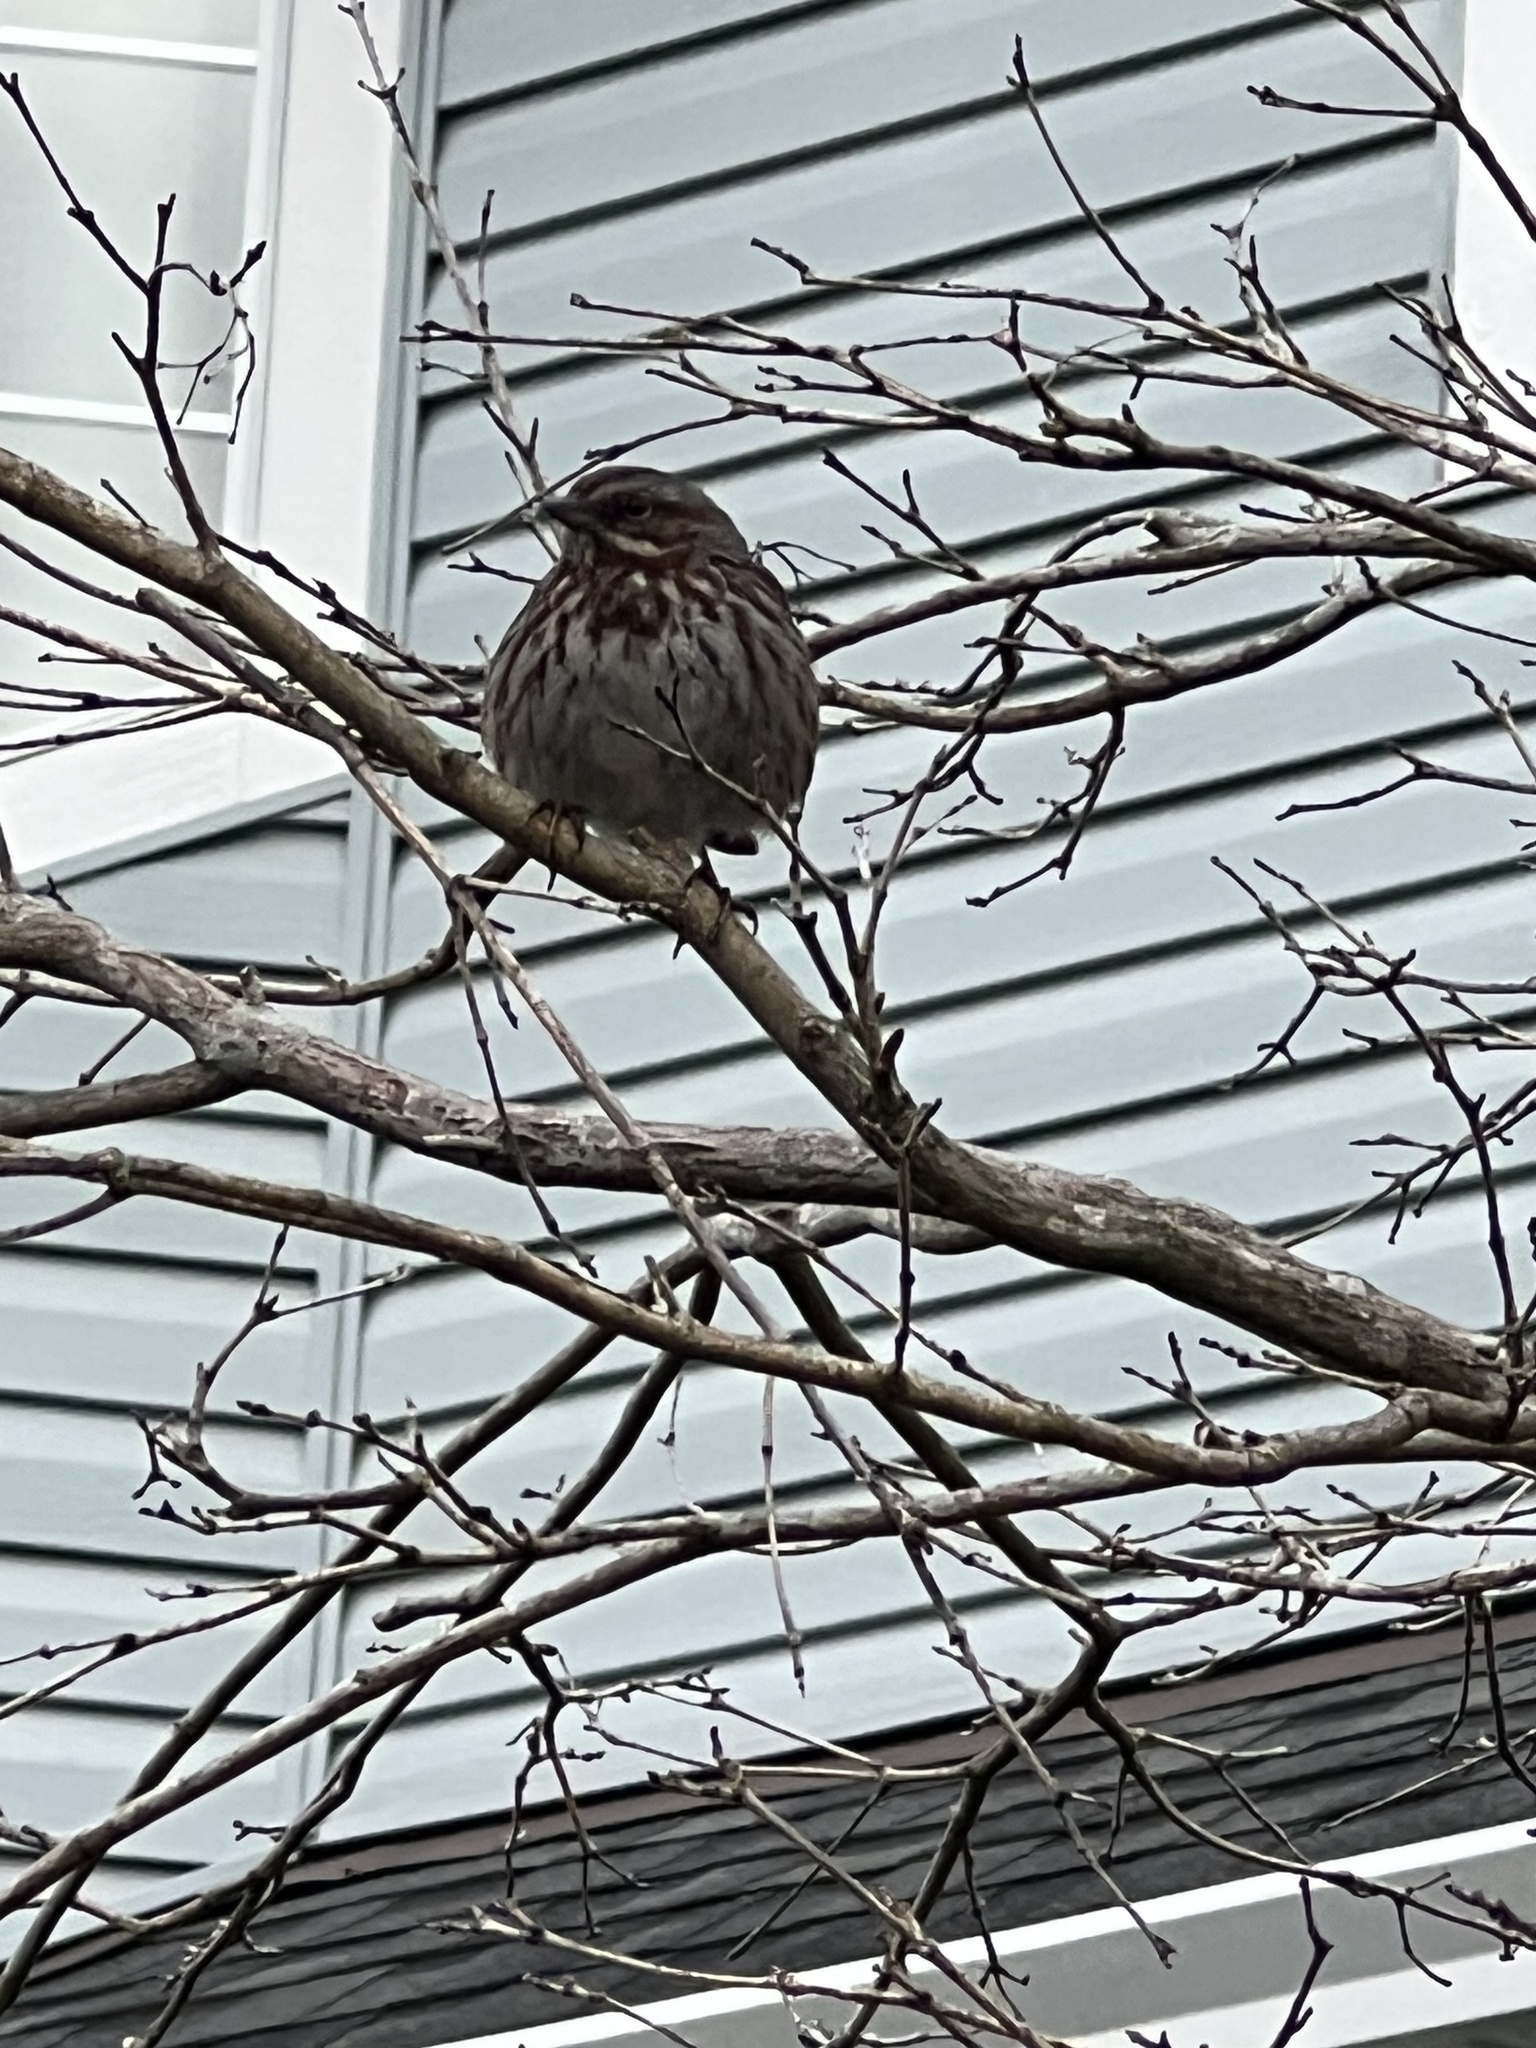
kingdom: Animalia
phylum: Chordata
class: Aves
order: Passeriformes
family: Passerellidae
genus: Melospiza
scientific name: Melospiza melodia
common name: Song sparrow
